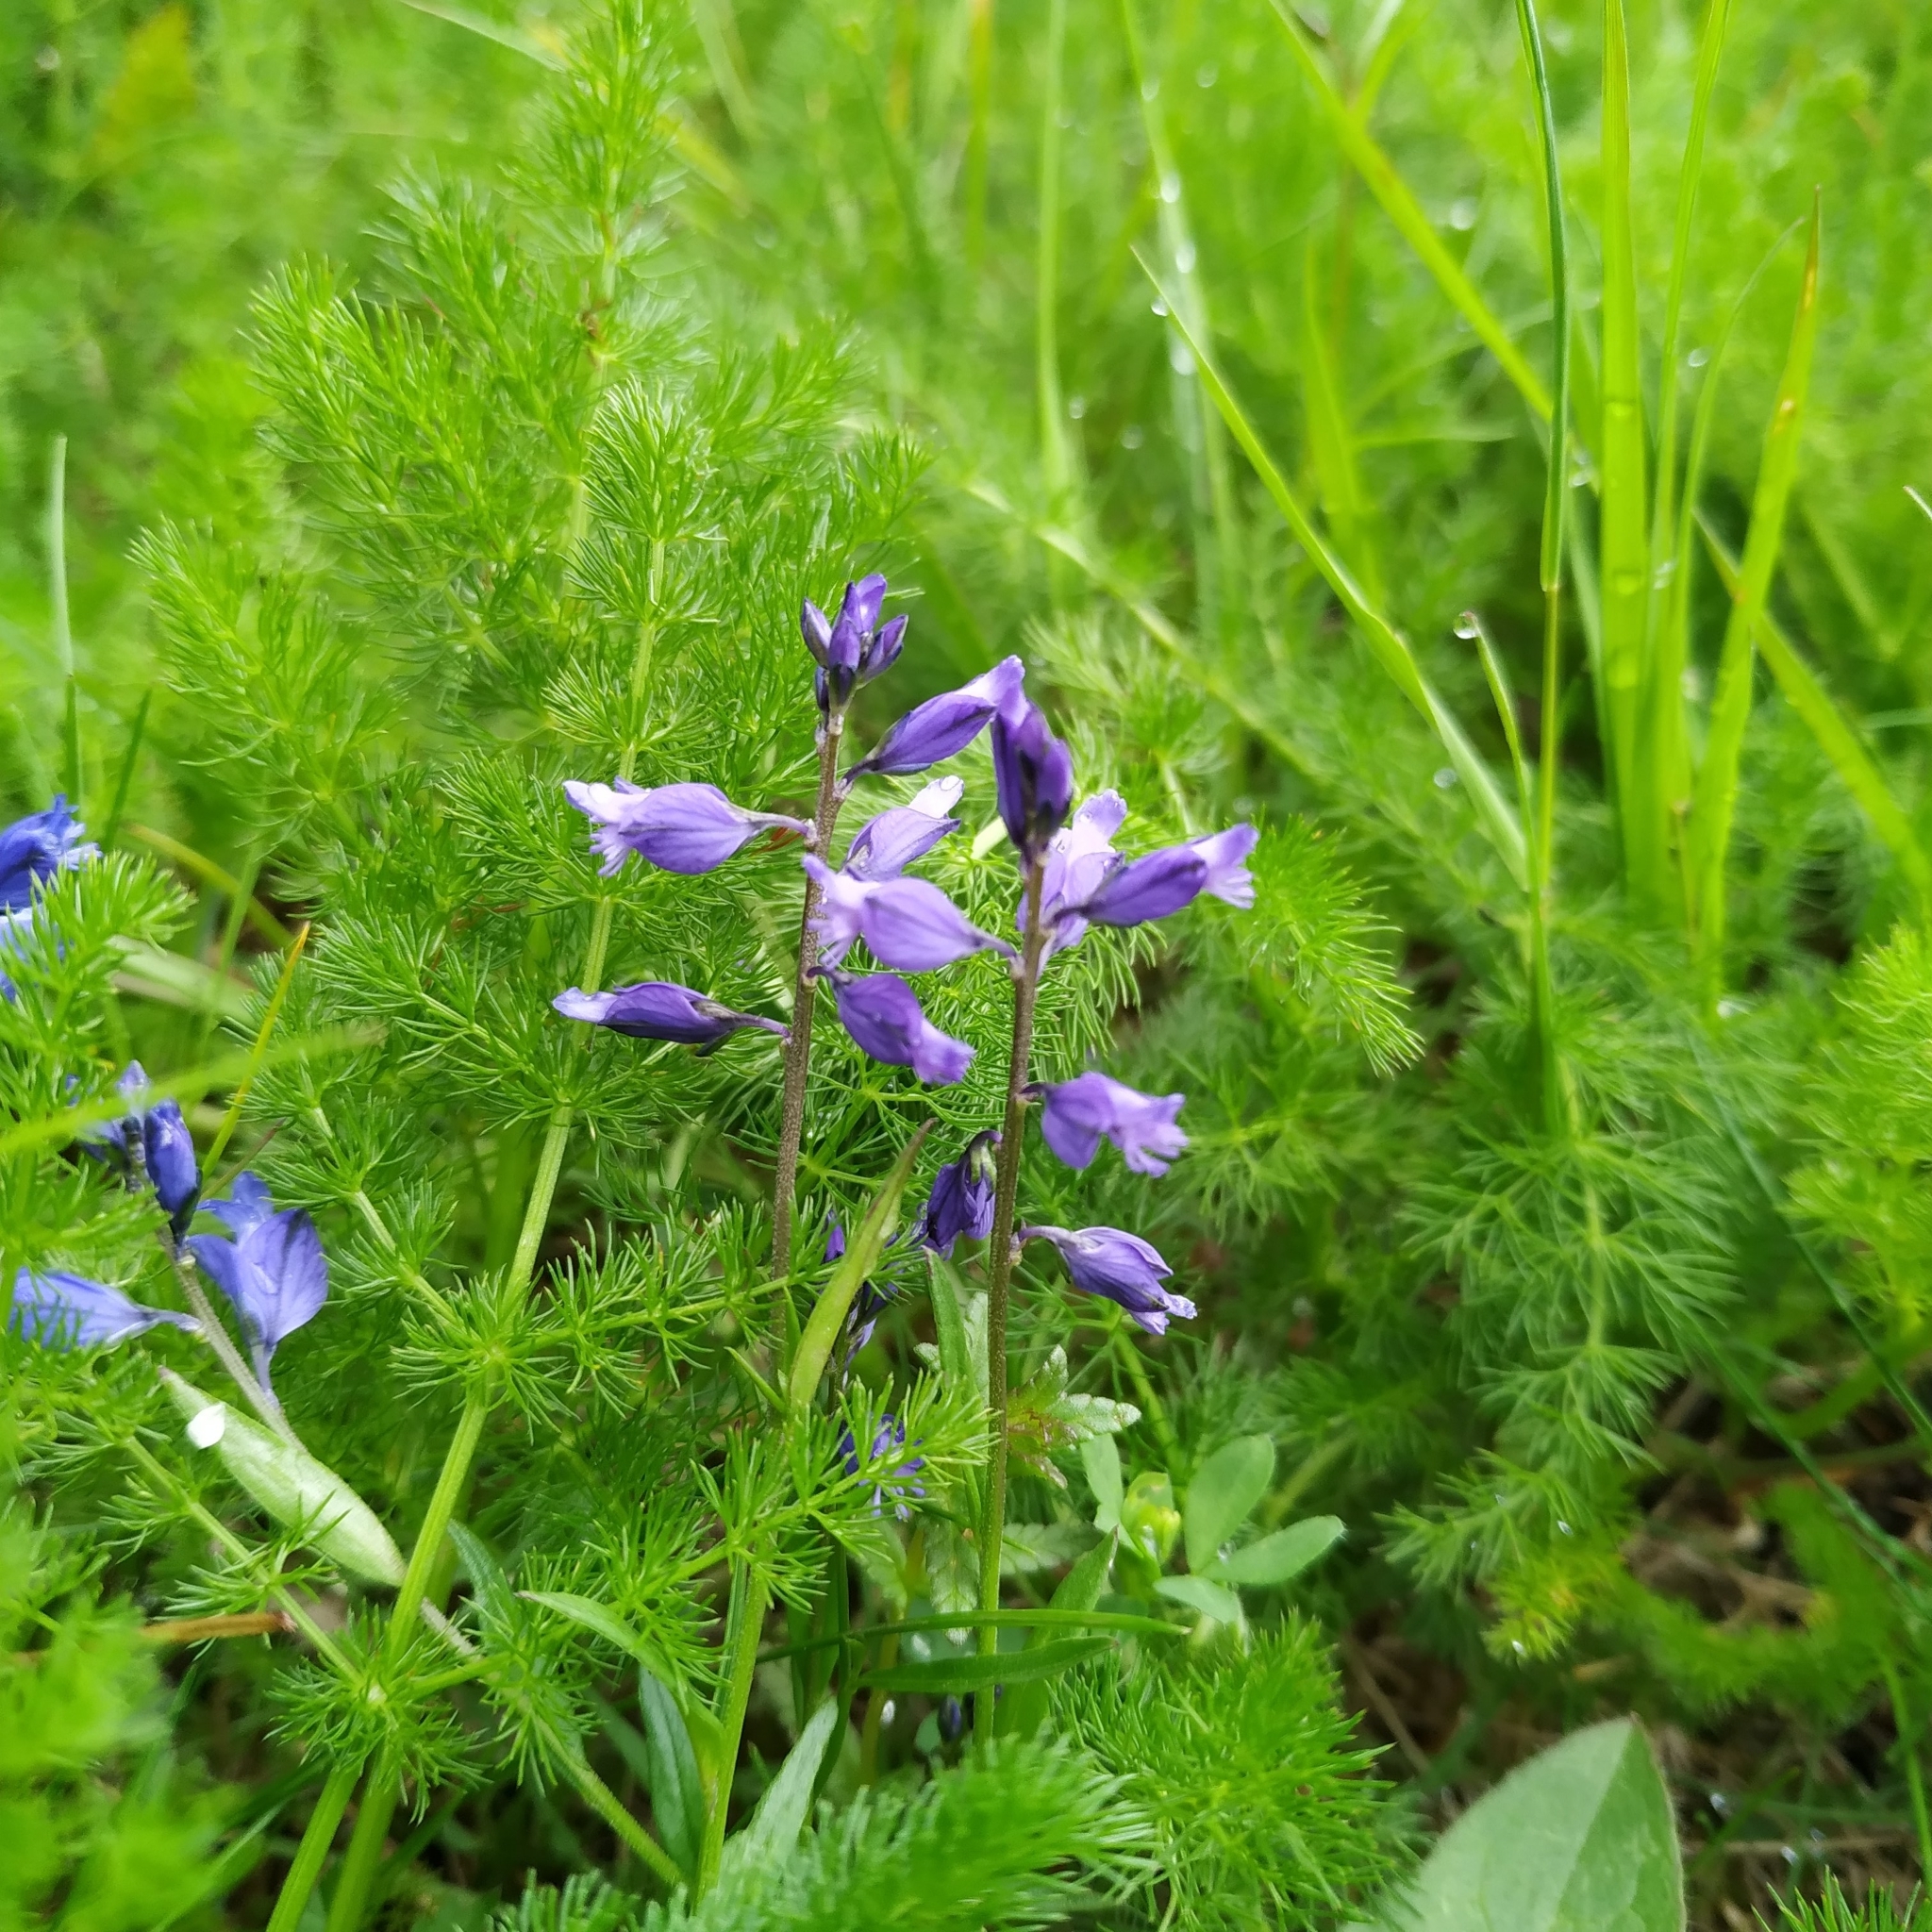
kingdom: Plantae
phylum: Tracheophyta
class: Magnoliopsida
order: Fabales
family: Polygalaceae
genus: Polygala
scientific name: Polygala vulgaris
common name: Common milkwort
